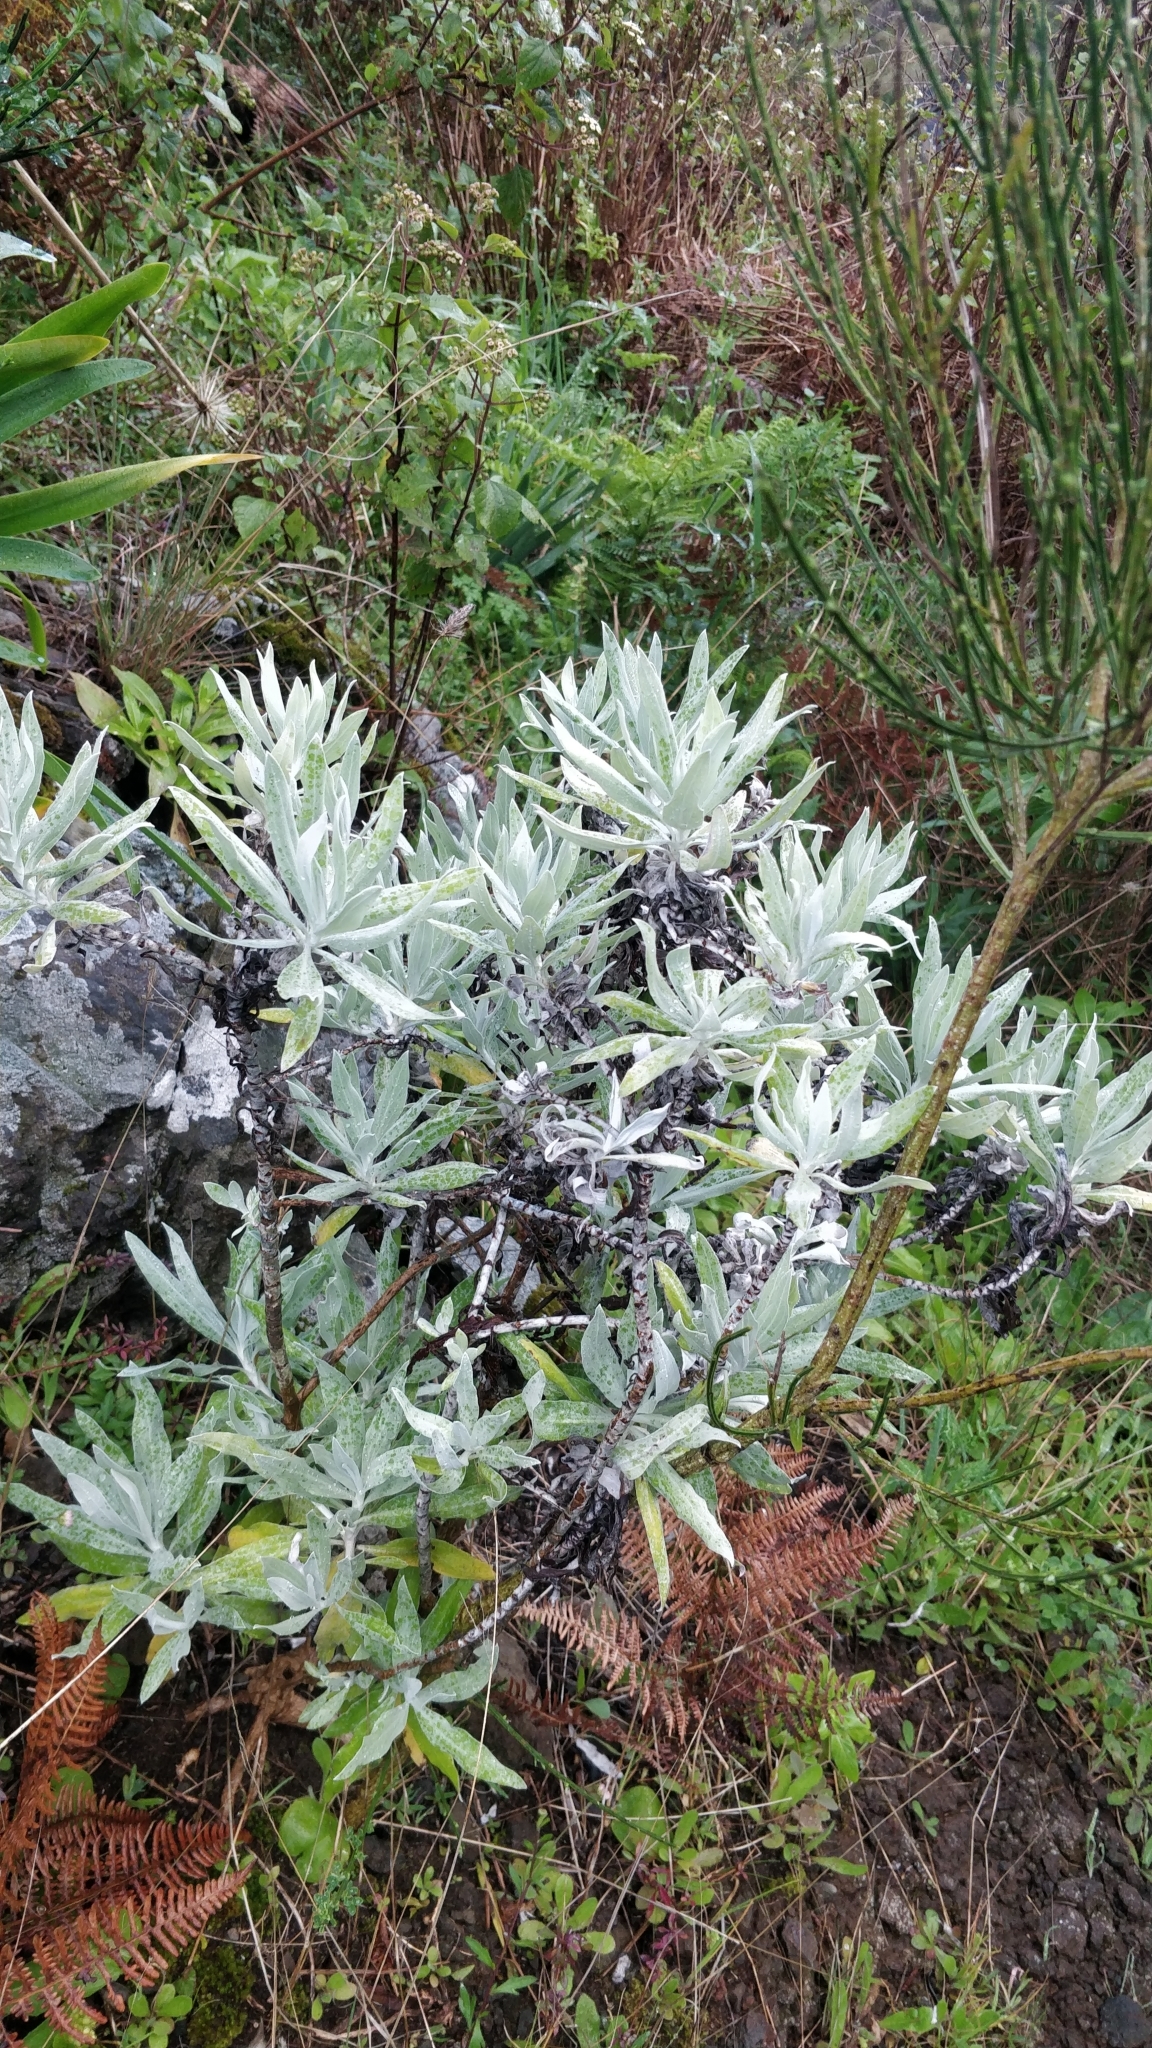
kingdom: Plantae
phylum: Tracheophyta
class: Magnoliopsida
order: Asterales
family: Asteraceae
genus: Helichrysum
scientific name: Helichrysum melaleucum
